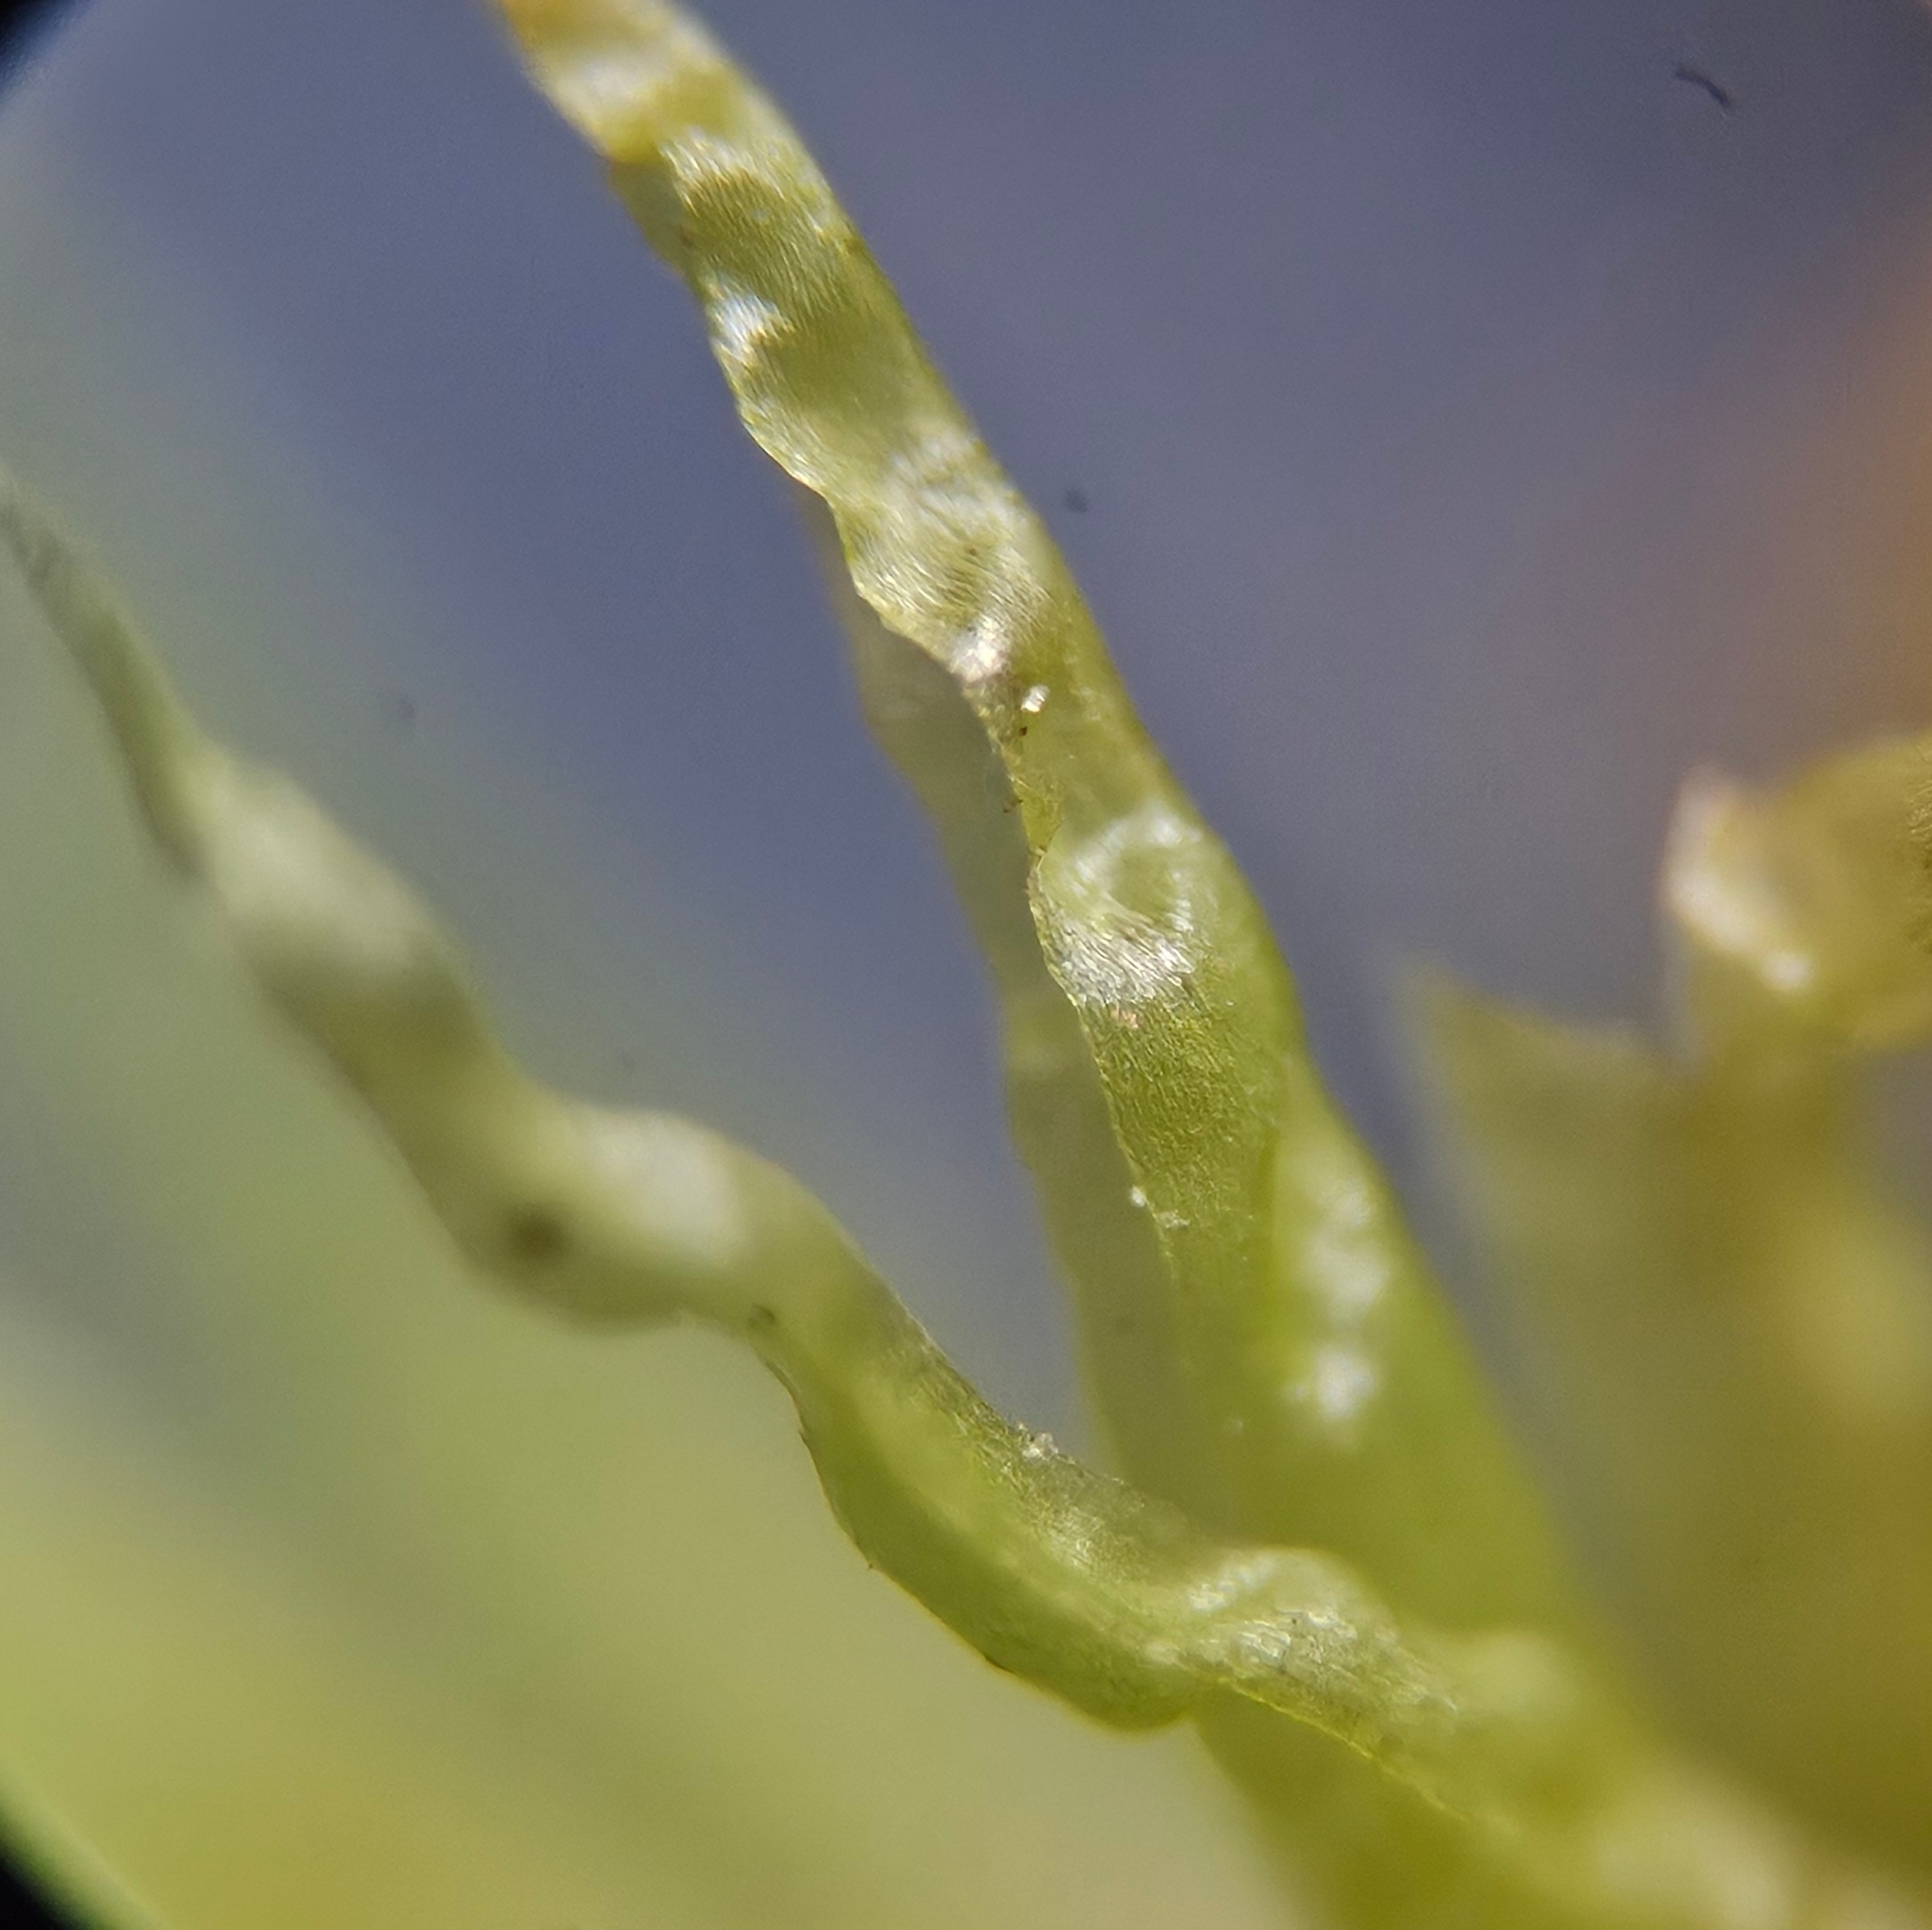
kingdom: Plantae
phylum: Bryophyta
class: Bryopsida
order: Dicranales
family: Dicranaceae
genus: Dicranum
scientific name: Dicranum bonjeanii
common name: Bonjean's broom moss
